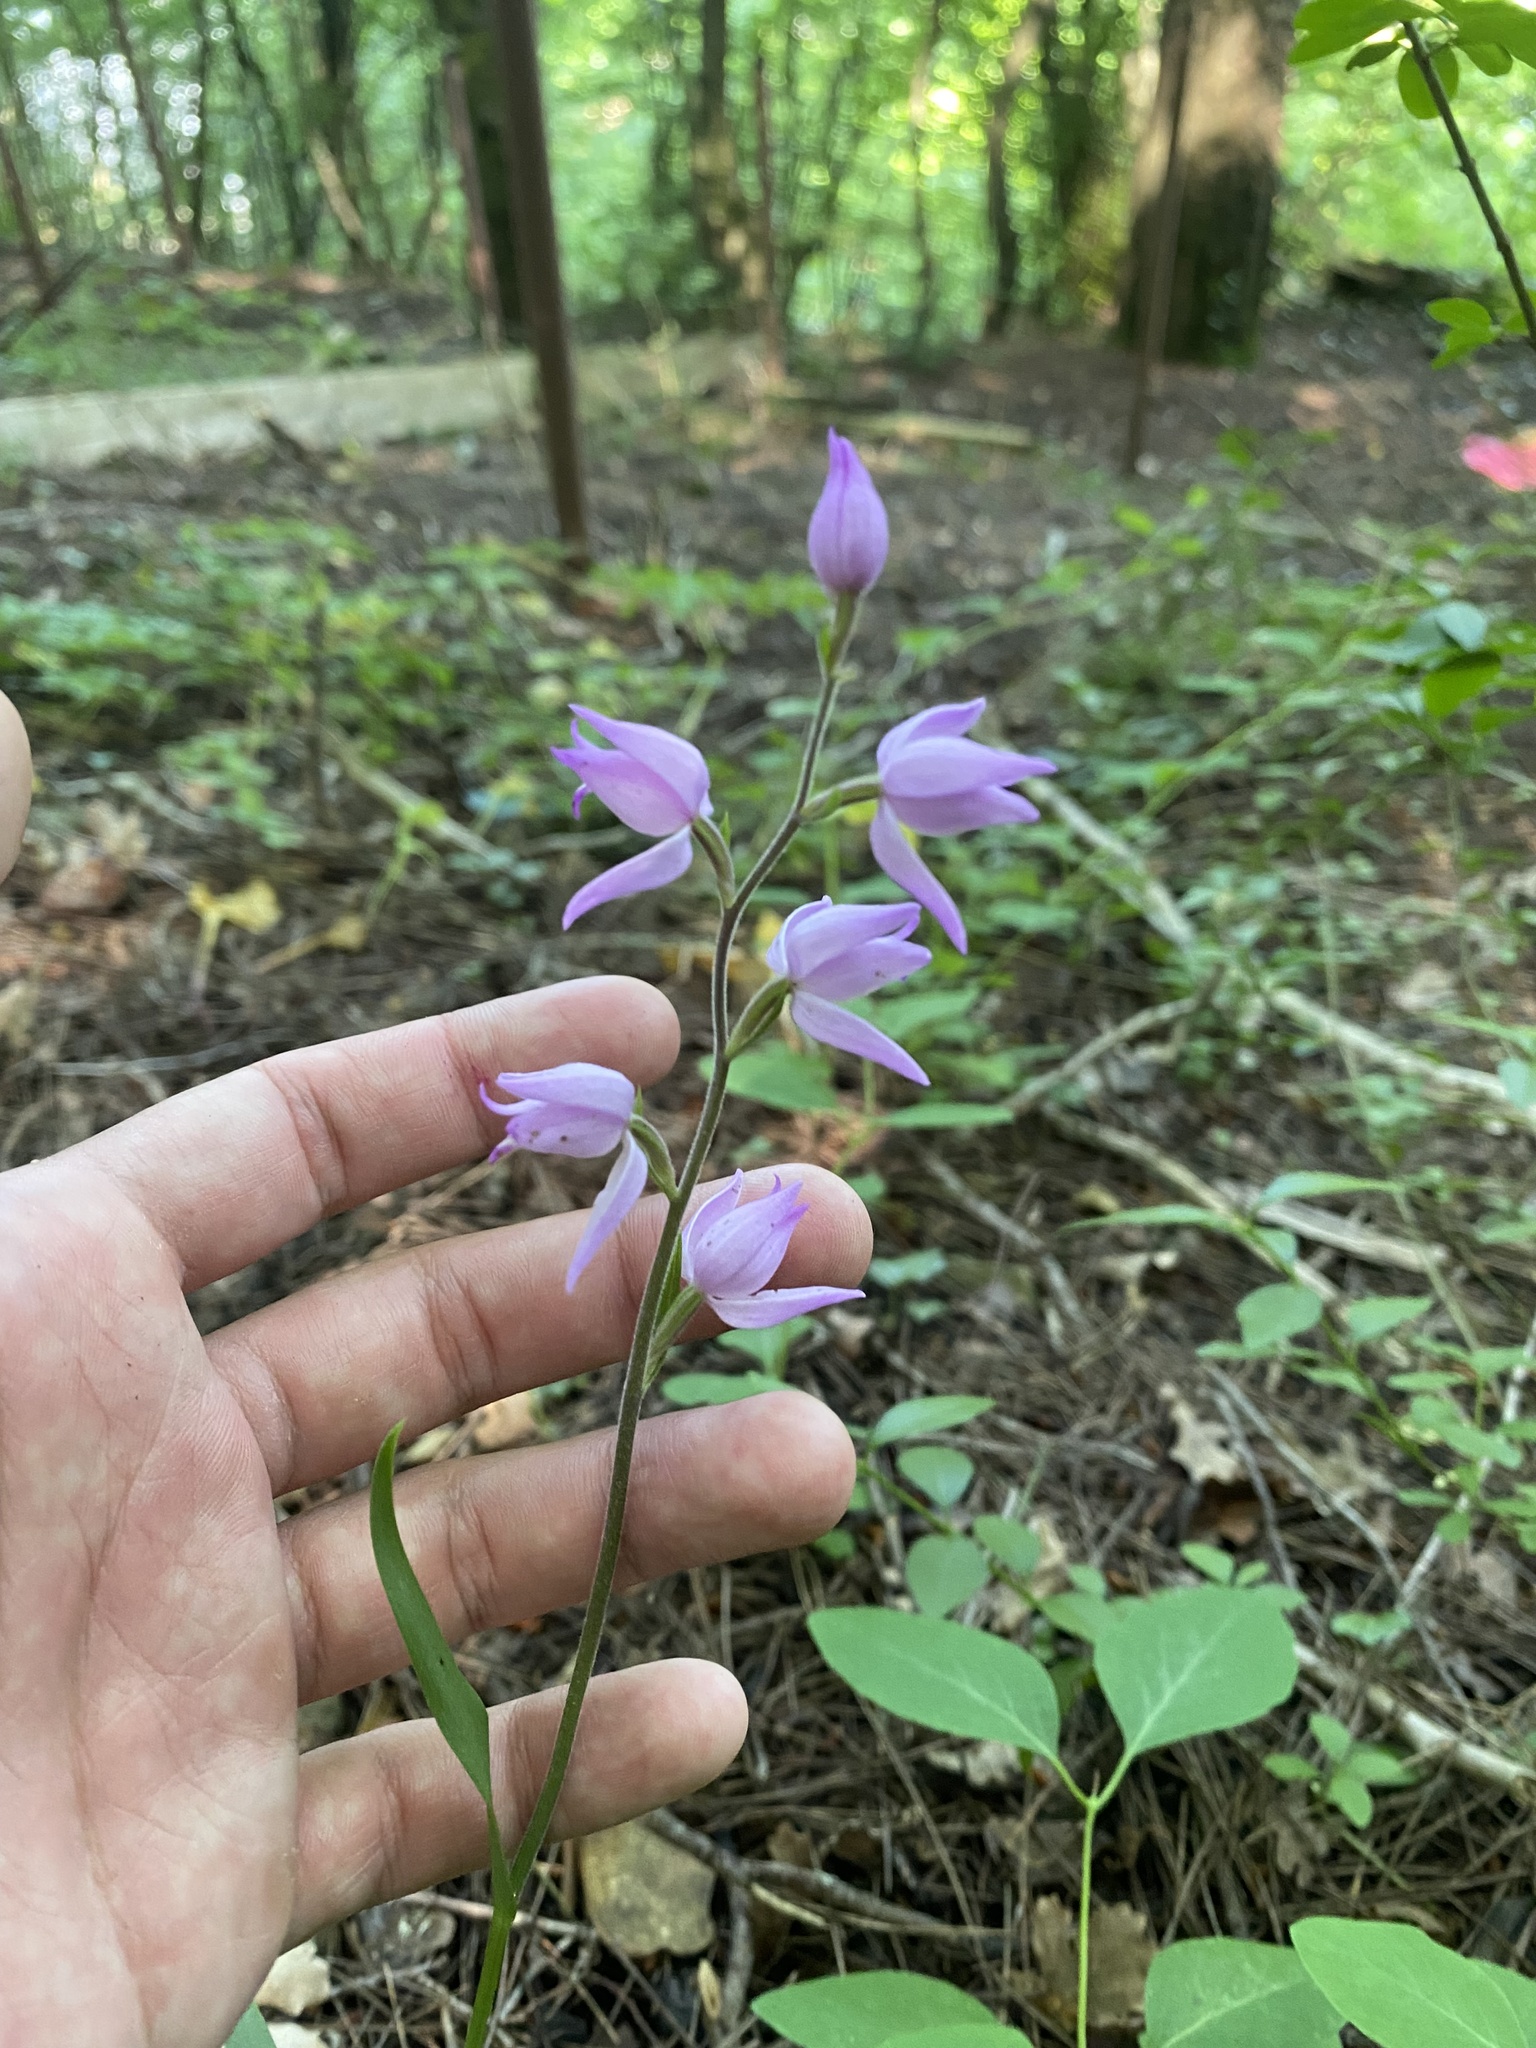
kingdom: Plantae
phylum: Tracheophyta
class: Liliopsida
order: Asparagales
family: Orchidaceae
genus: Cephalanthera
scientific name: Cephalanthera rubra
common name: Red helleborine
